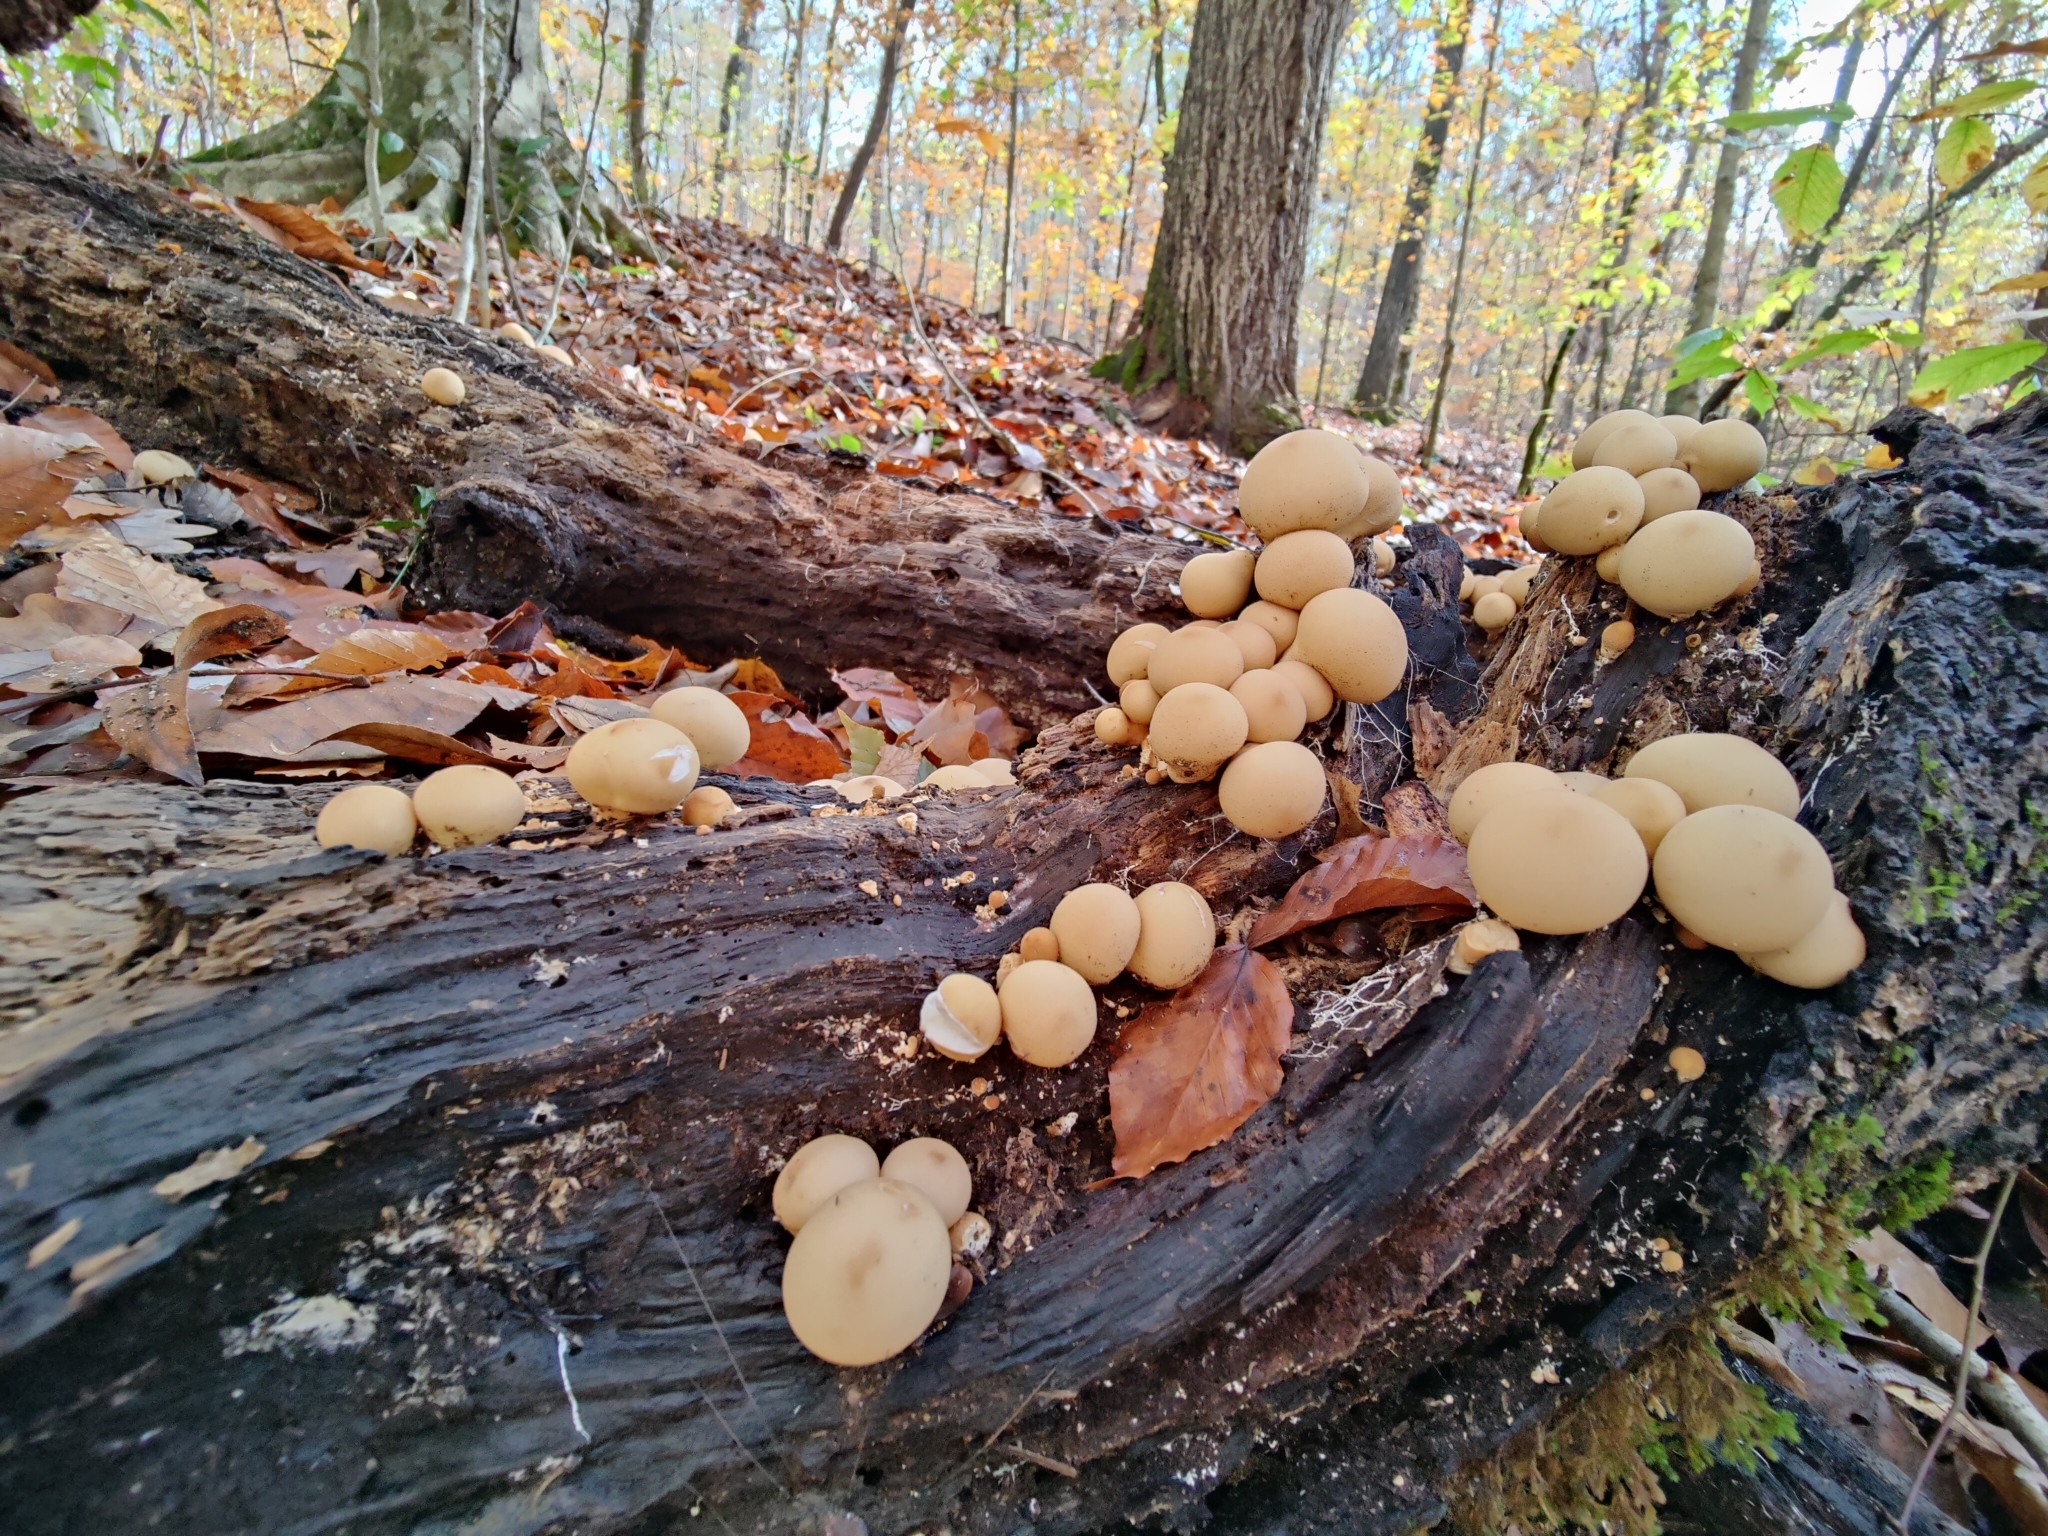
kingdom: Fungi
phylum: Basidiomycota
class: Agaricomycetes
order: Agaricales
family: Lycoperdaceae
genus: Apioperdon
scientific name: Apioperdon pyriforme
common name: Pear-shaped puffball
